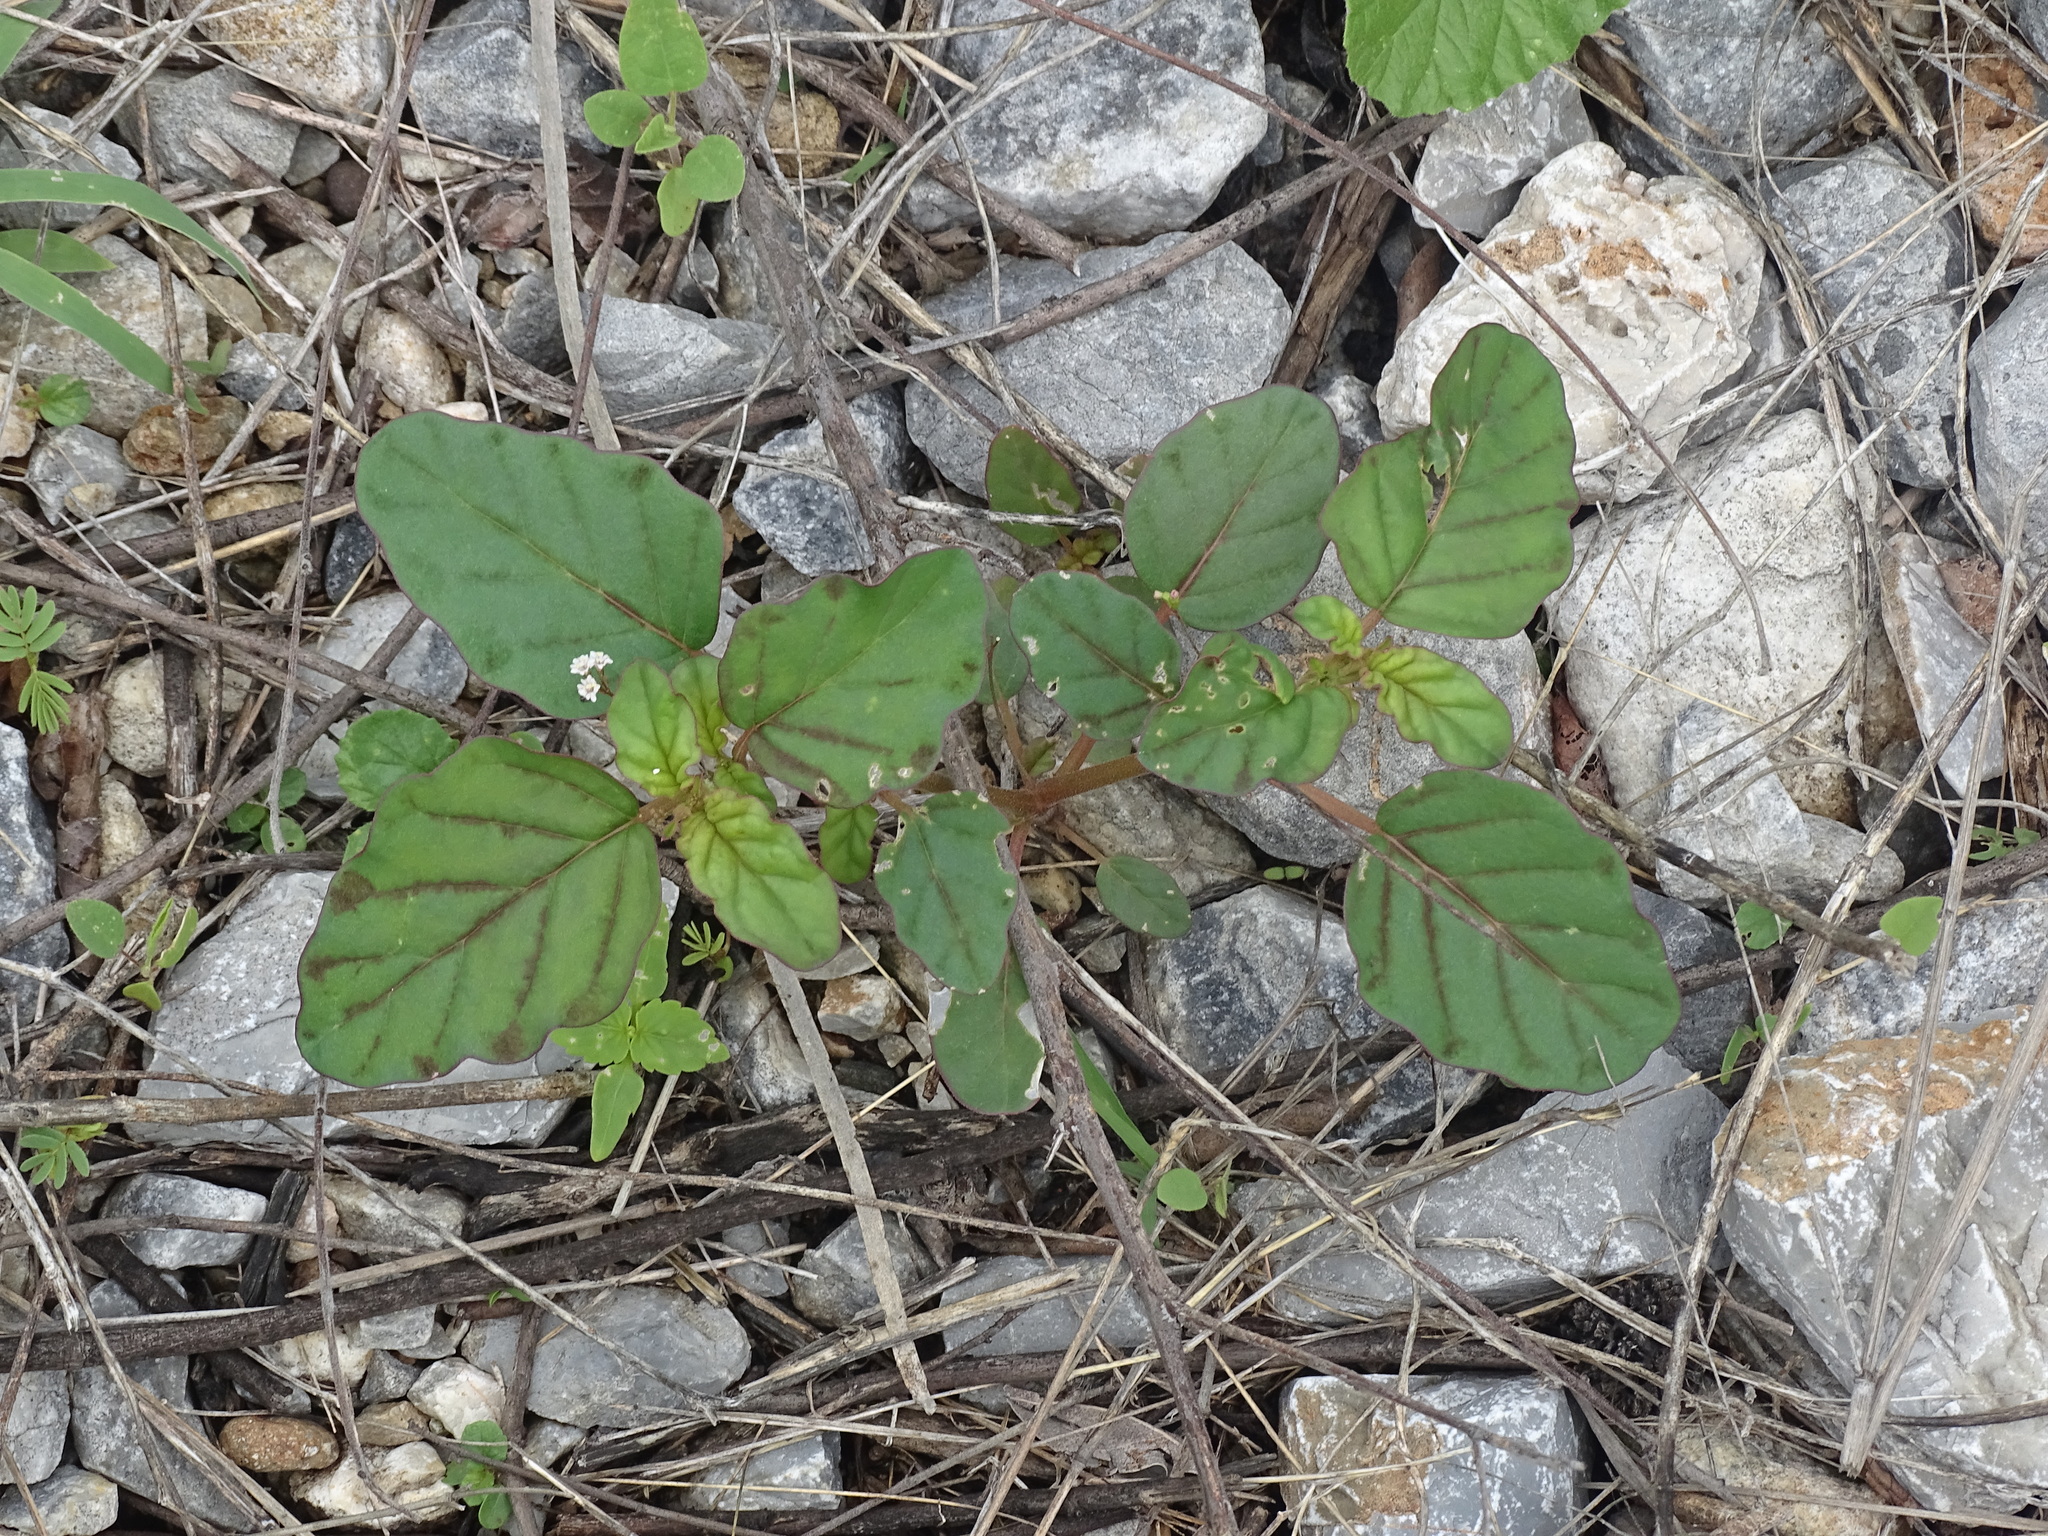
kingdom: Plantae
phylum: Tracheophyta
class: Magnoliopsida
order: Caryophyllales
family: Nyctaginaceae
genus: Boerhavia
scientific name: Boerhavia erecta
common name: Erect spiderling
